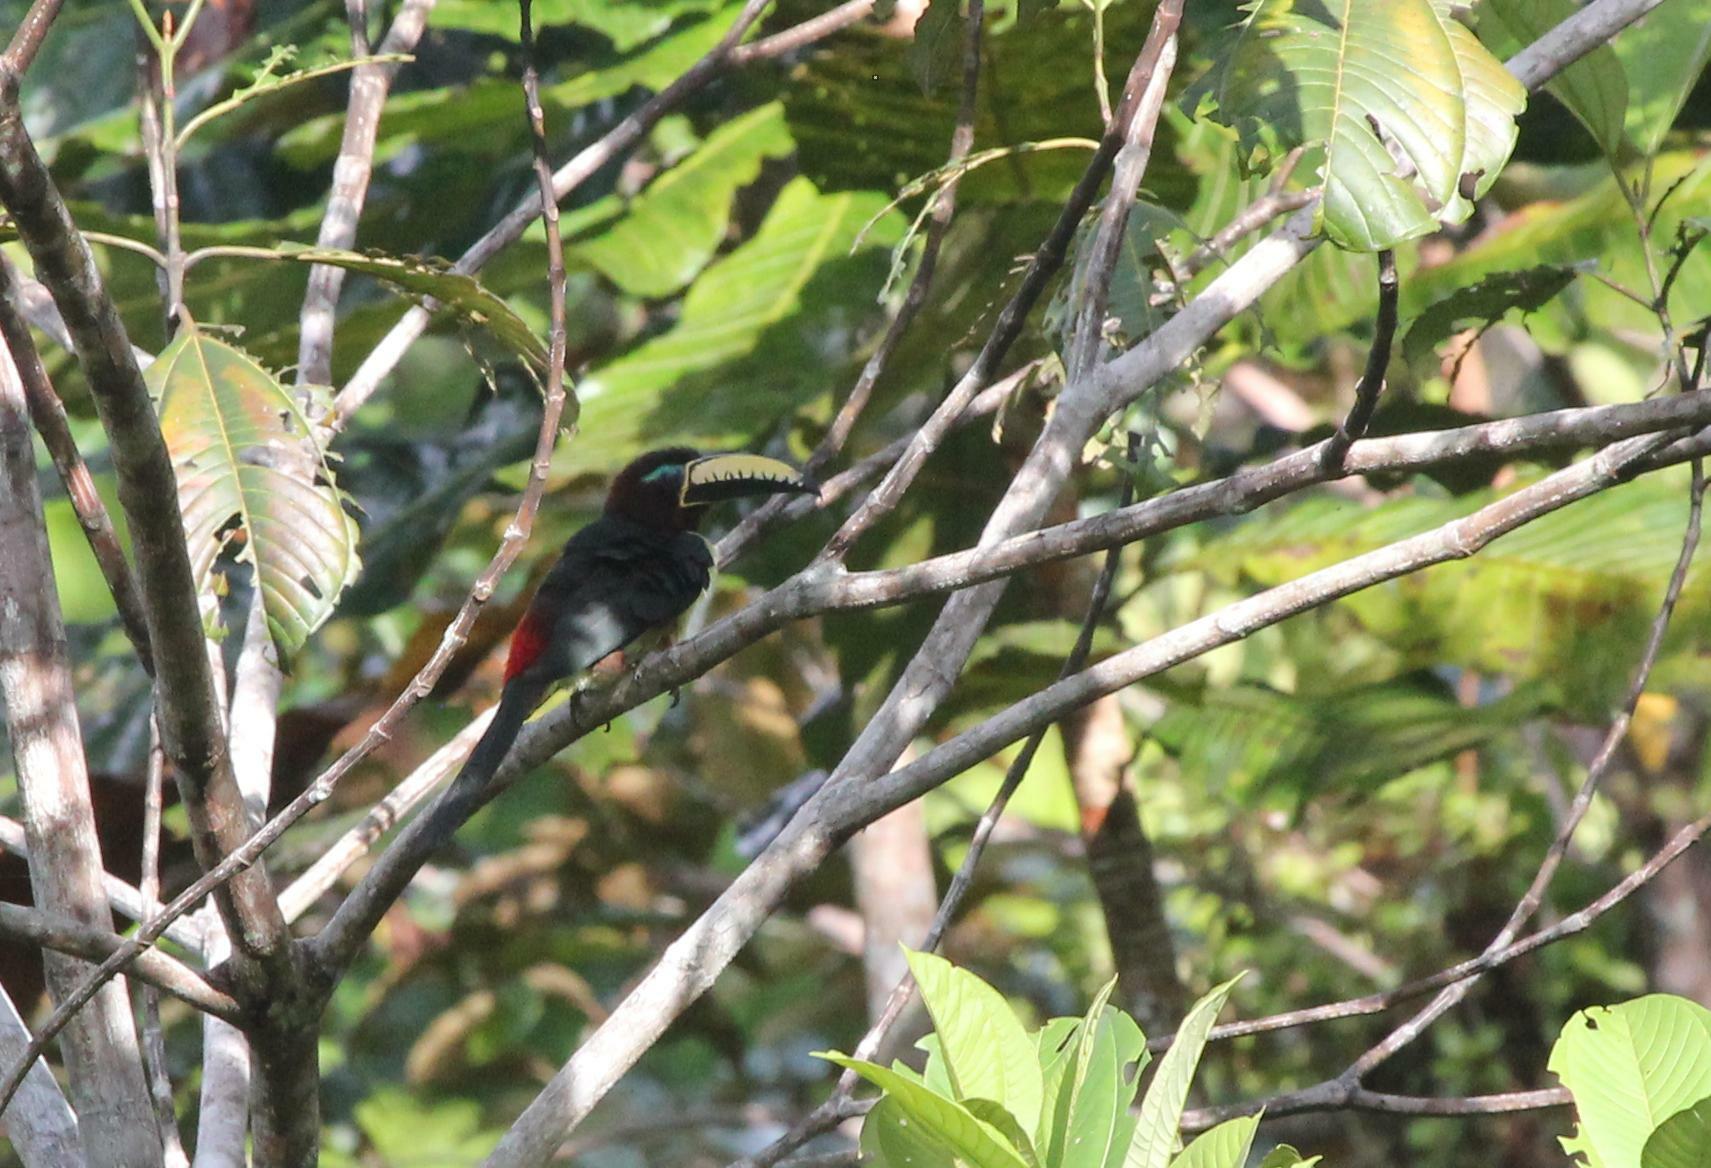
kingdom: Animalia
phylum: Chordata
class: Aves
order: Piciformes
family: Ramphastidae
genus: Pteroglossus
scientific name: Pteroglossus inscriptus
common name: Lettered aracari
